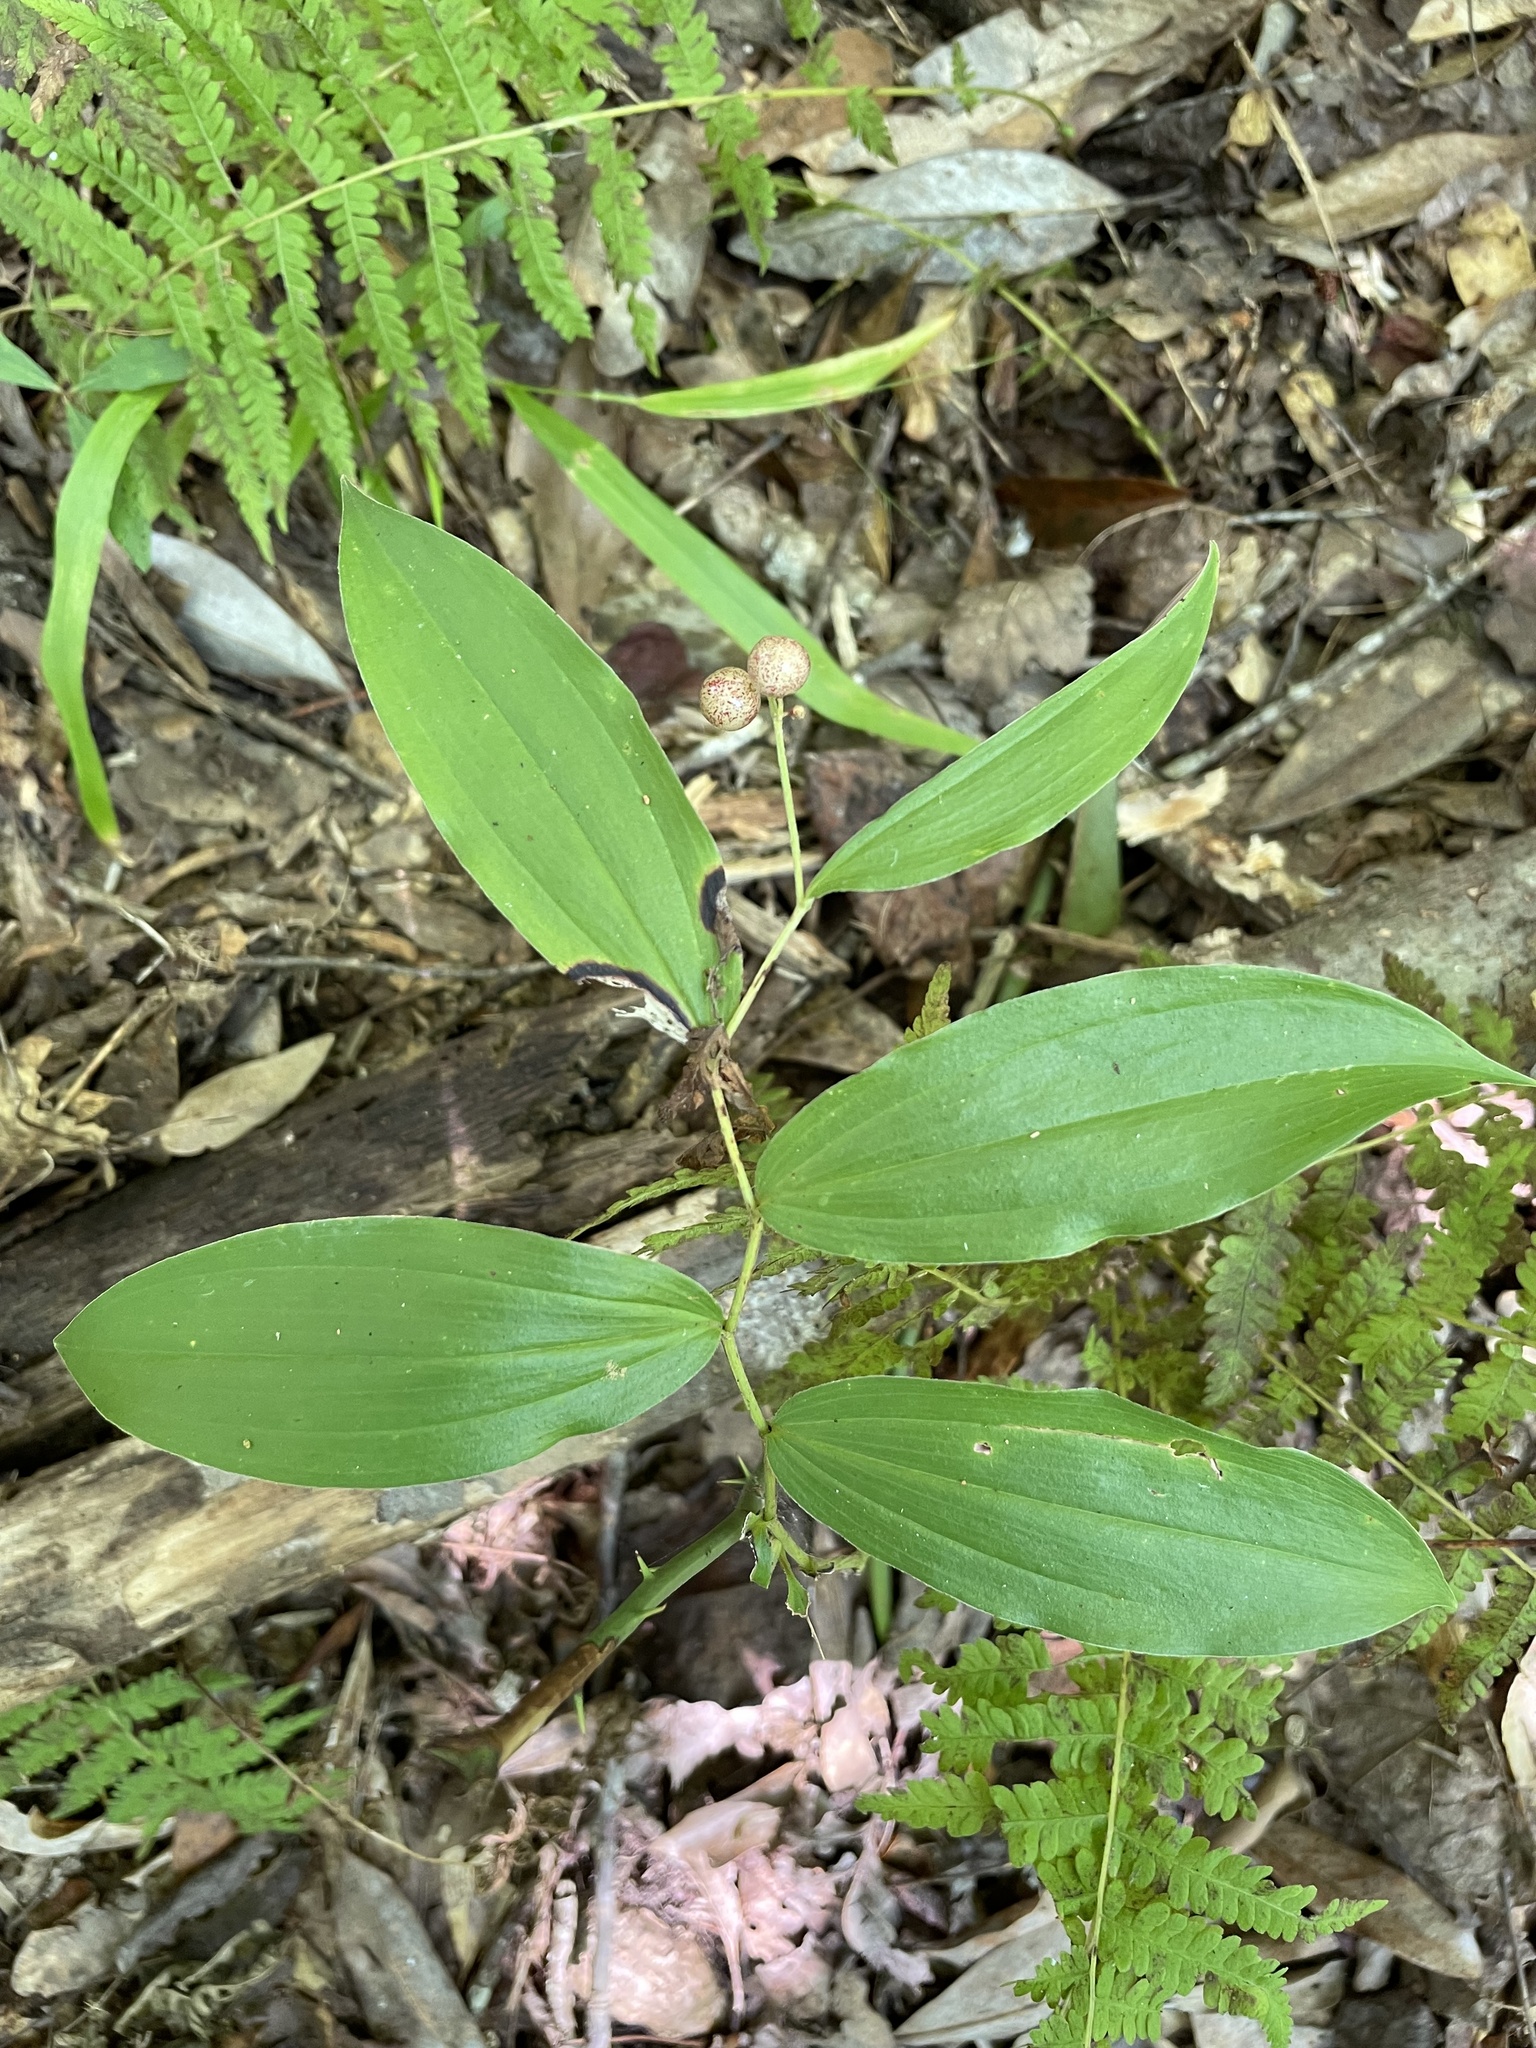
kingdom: Plantae
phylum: Tracheophyta
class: Liliopsida
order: Asparagales
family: Asparagaceae
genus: Maianthemum
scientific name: Maianthemum racemosum
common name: False spikenard
